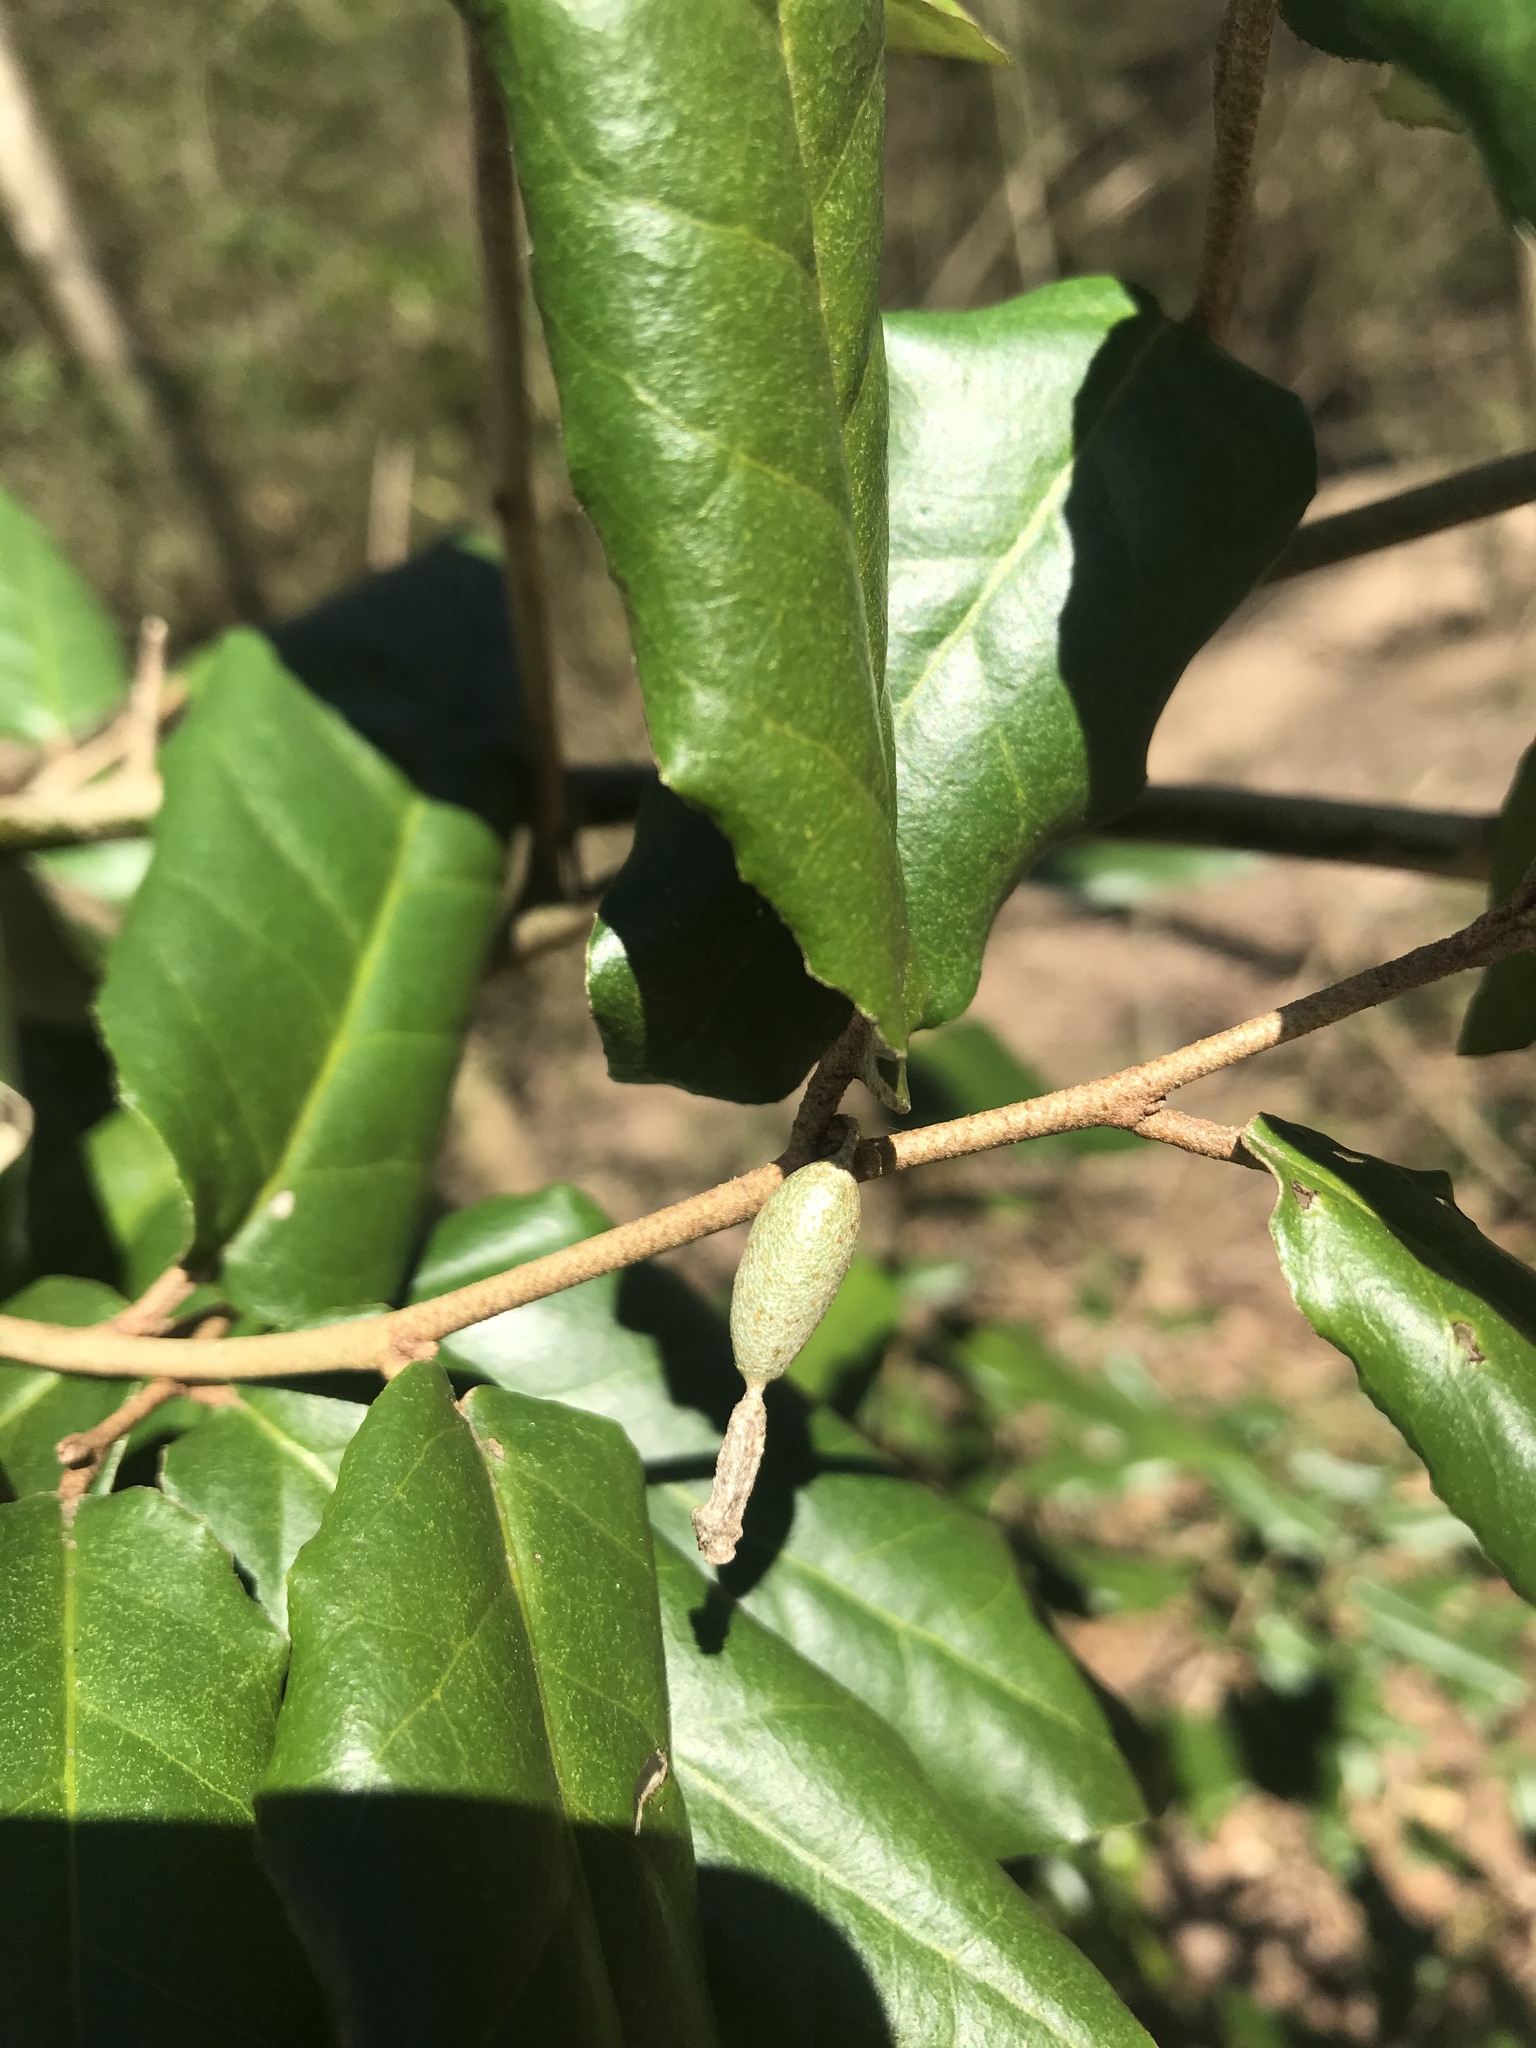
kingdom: Plantae
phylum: Tracheophyta
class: Magnoliopsida
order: Rosales
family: Elaeagnaceae
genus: Elaeagnus
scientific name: Elaeagnus pungens
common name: Spiny oleaster
